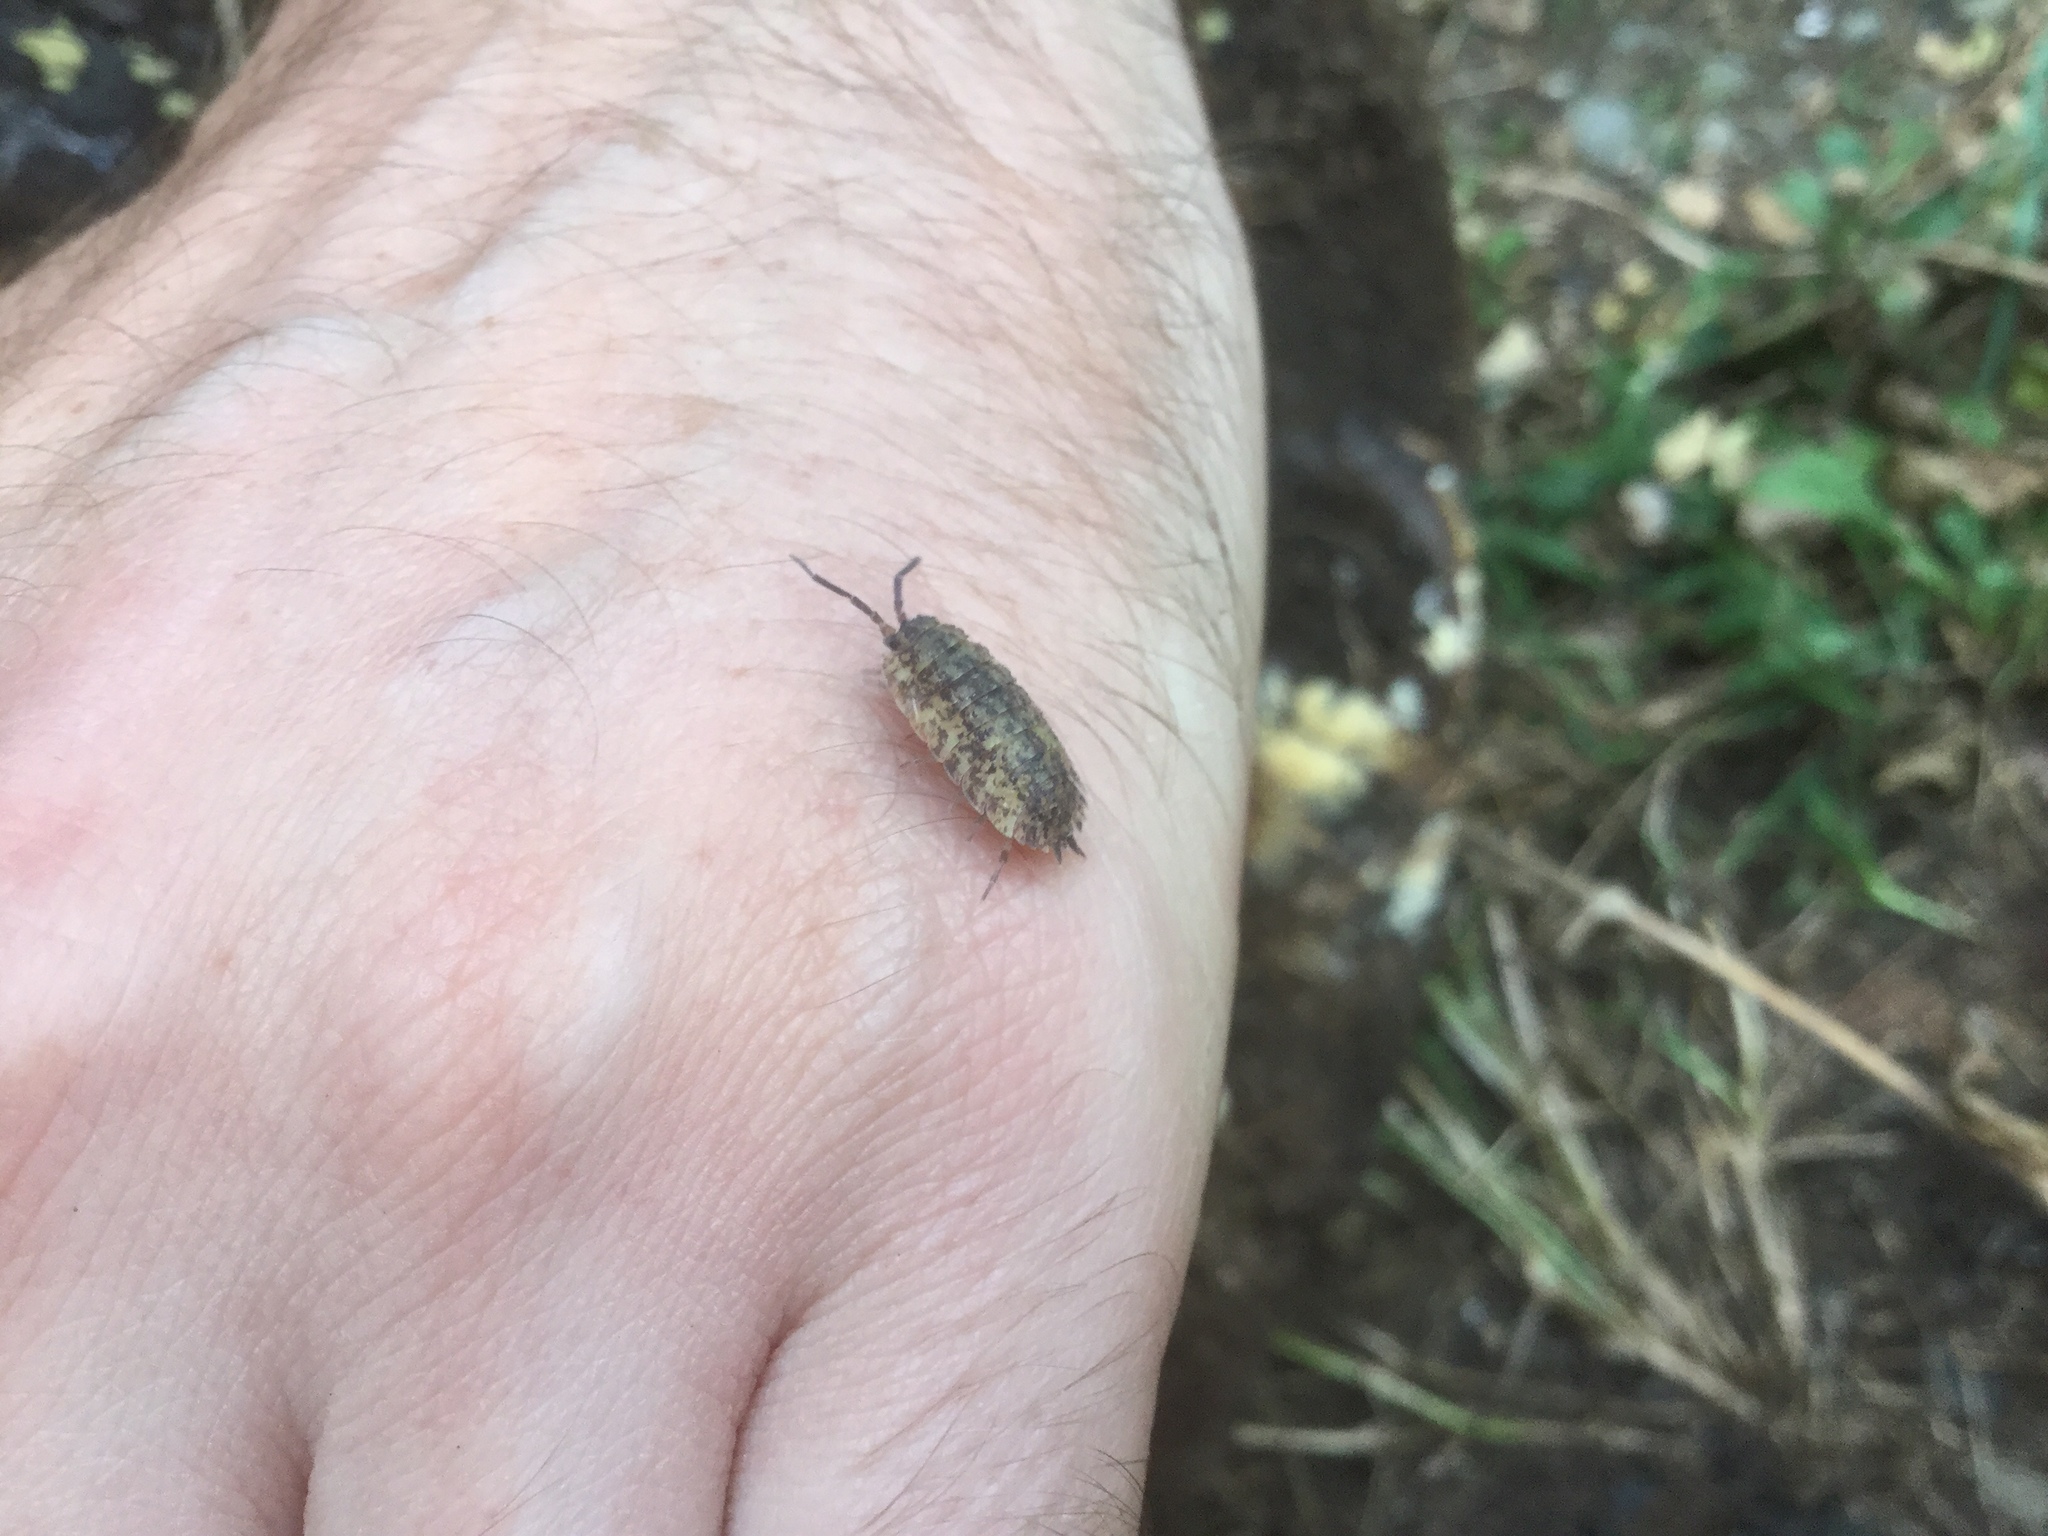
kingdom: Animalia
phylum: Arthropoda
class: Malacostraca
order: Isopoda
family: Porcellionidae
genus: Porcellio
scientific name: Porcellio scaber
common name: Common rough woodlouse
